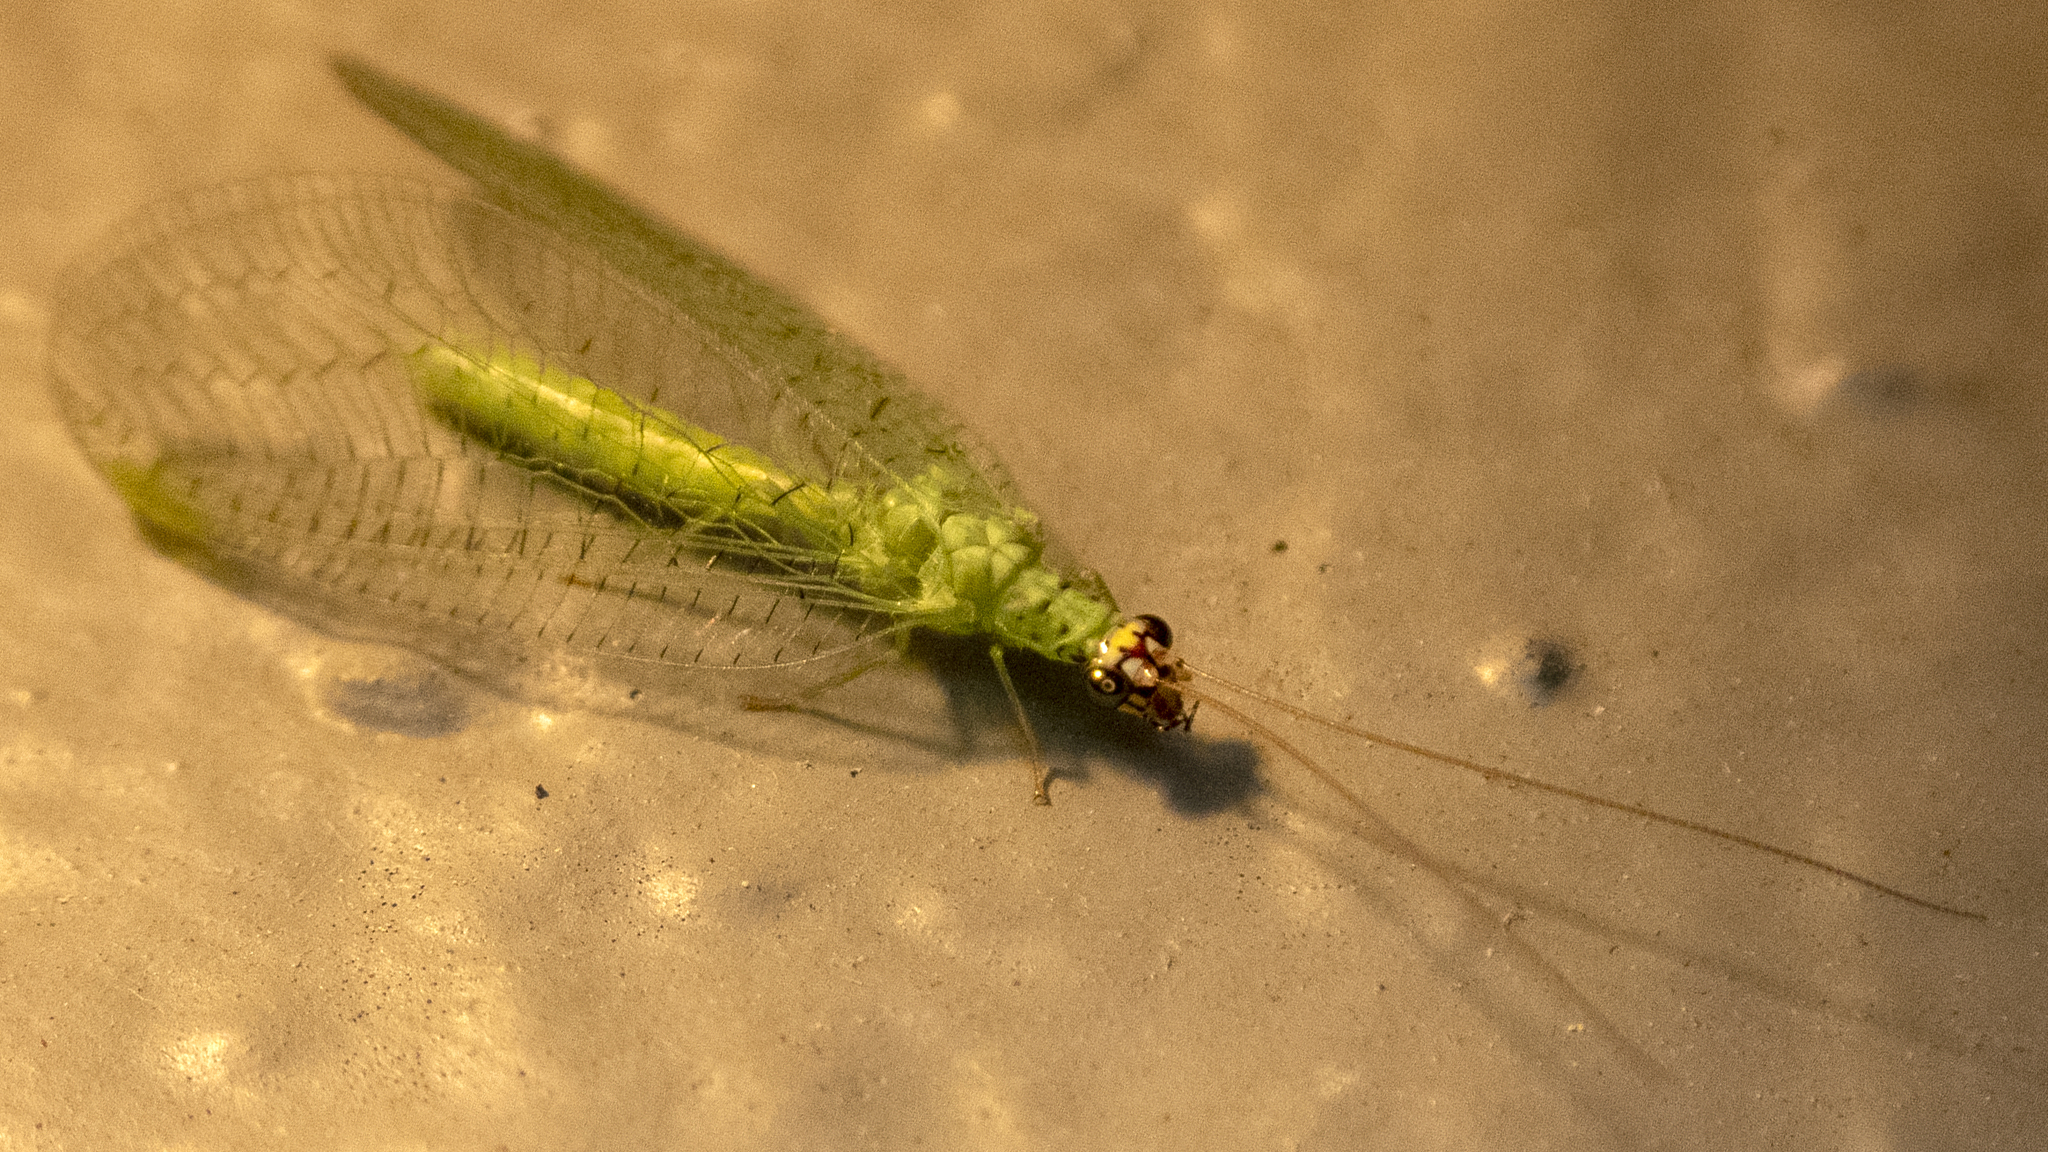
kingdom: Animalia
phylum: Arthropoda
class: Insecta
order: Neuroptera
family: Chrysopidae
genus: Chrysopa
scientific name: Chrysopa oculata
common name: Golden-eyed lacewing
